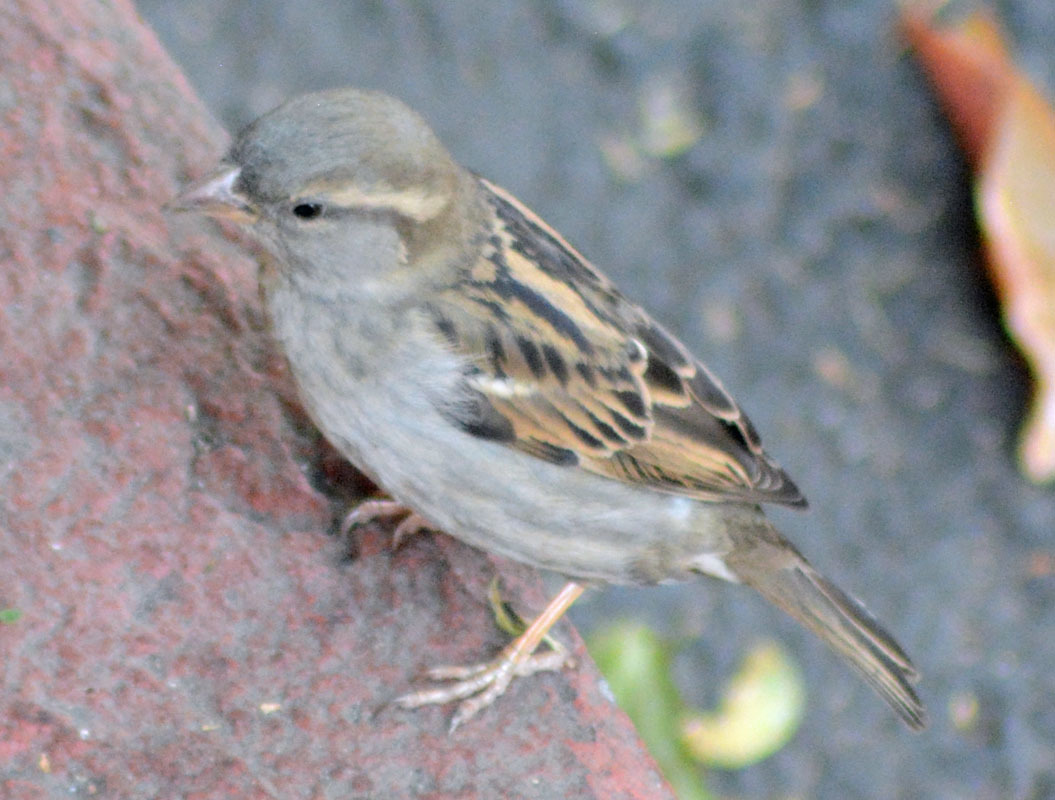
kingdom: Animalia
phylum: Chordata
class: Aves
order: Passeriformes
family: Passeridae
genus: Passer
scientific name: Passer domesticus
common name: House sparrow
